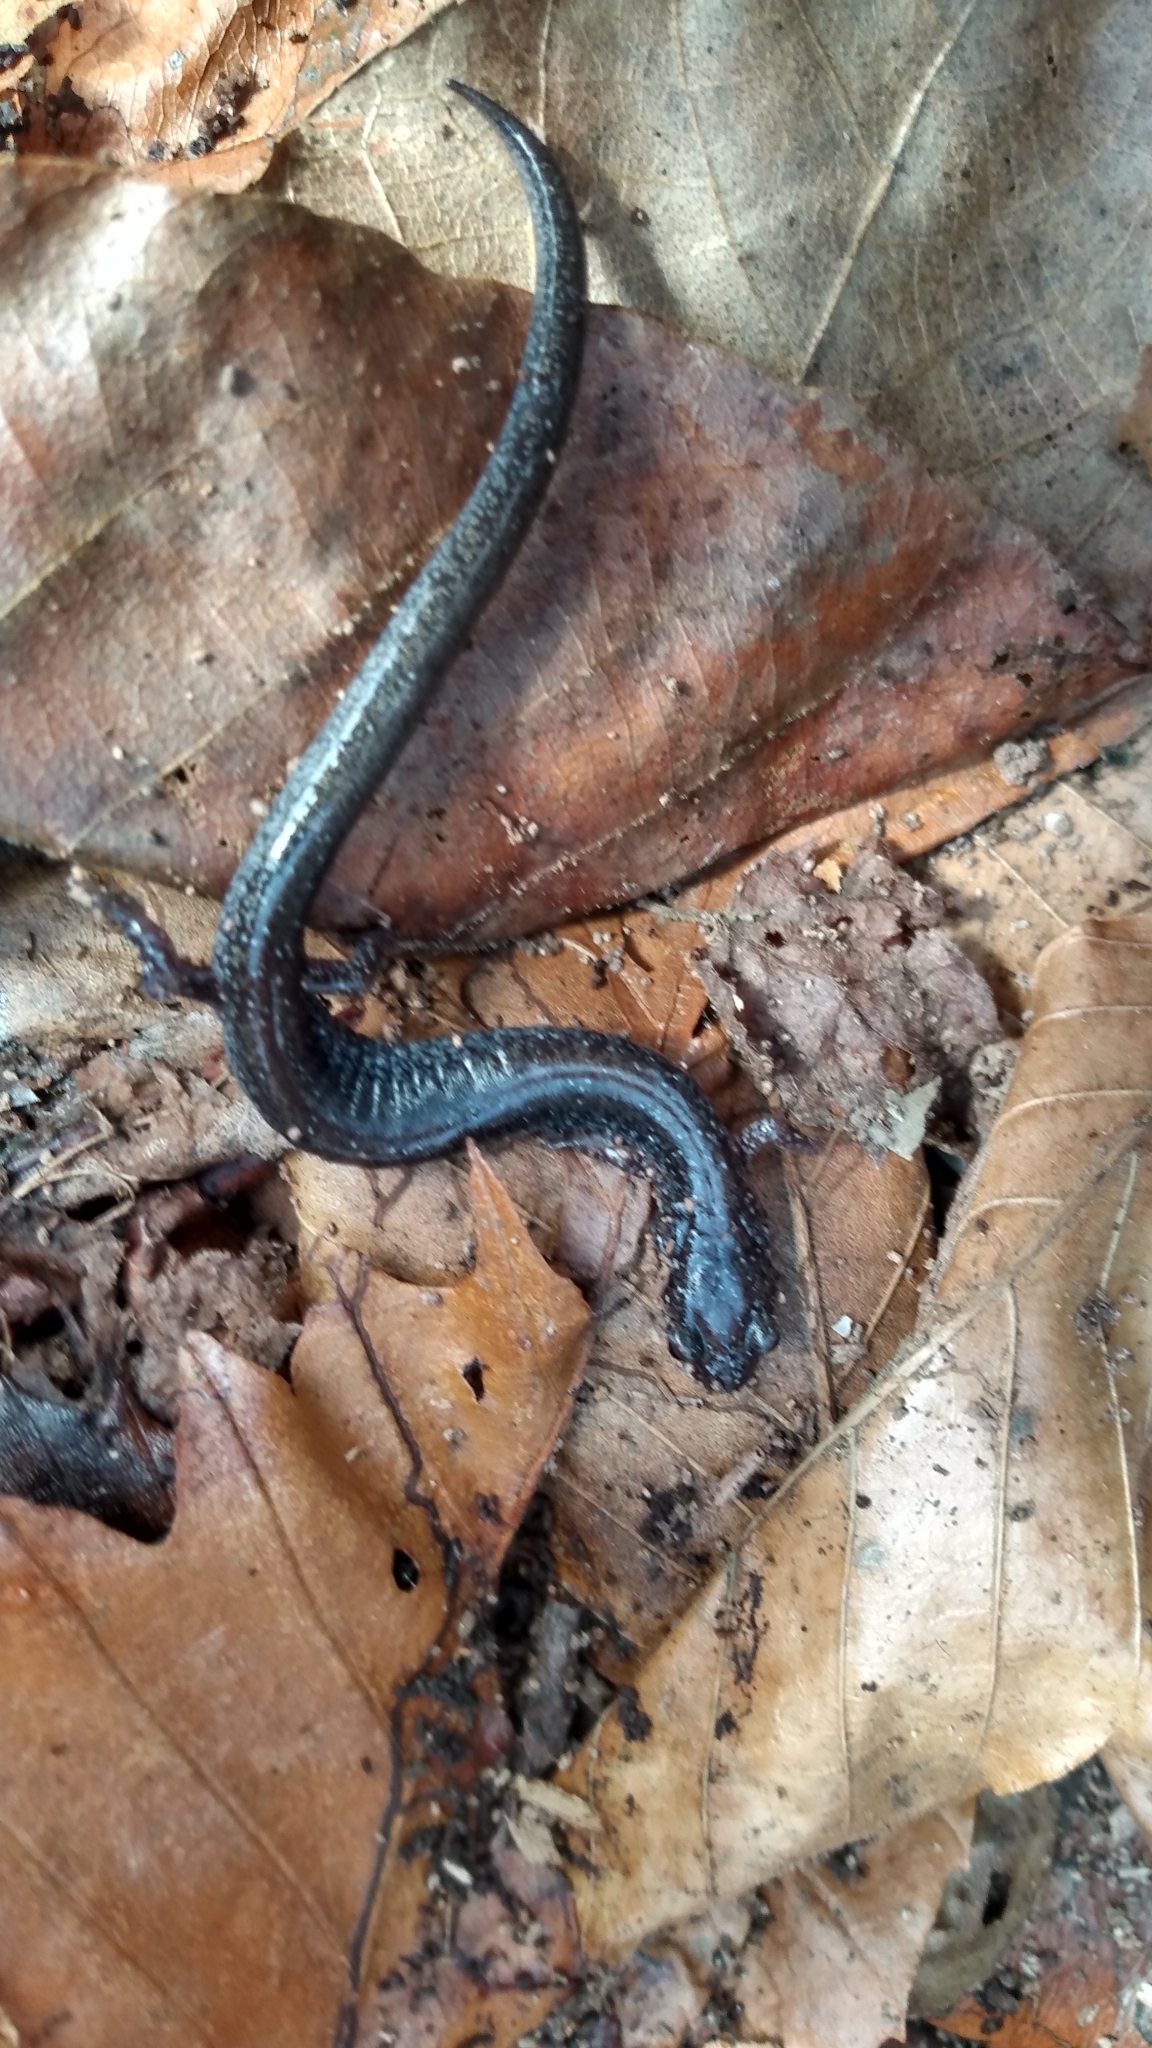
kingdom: Animalia
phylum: Chordata
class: Amphibia
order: Caudata
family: Plethodontidae
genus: Plethodon
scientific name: Plethodon cinereus
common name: Redback salamander
